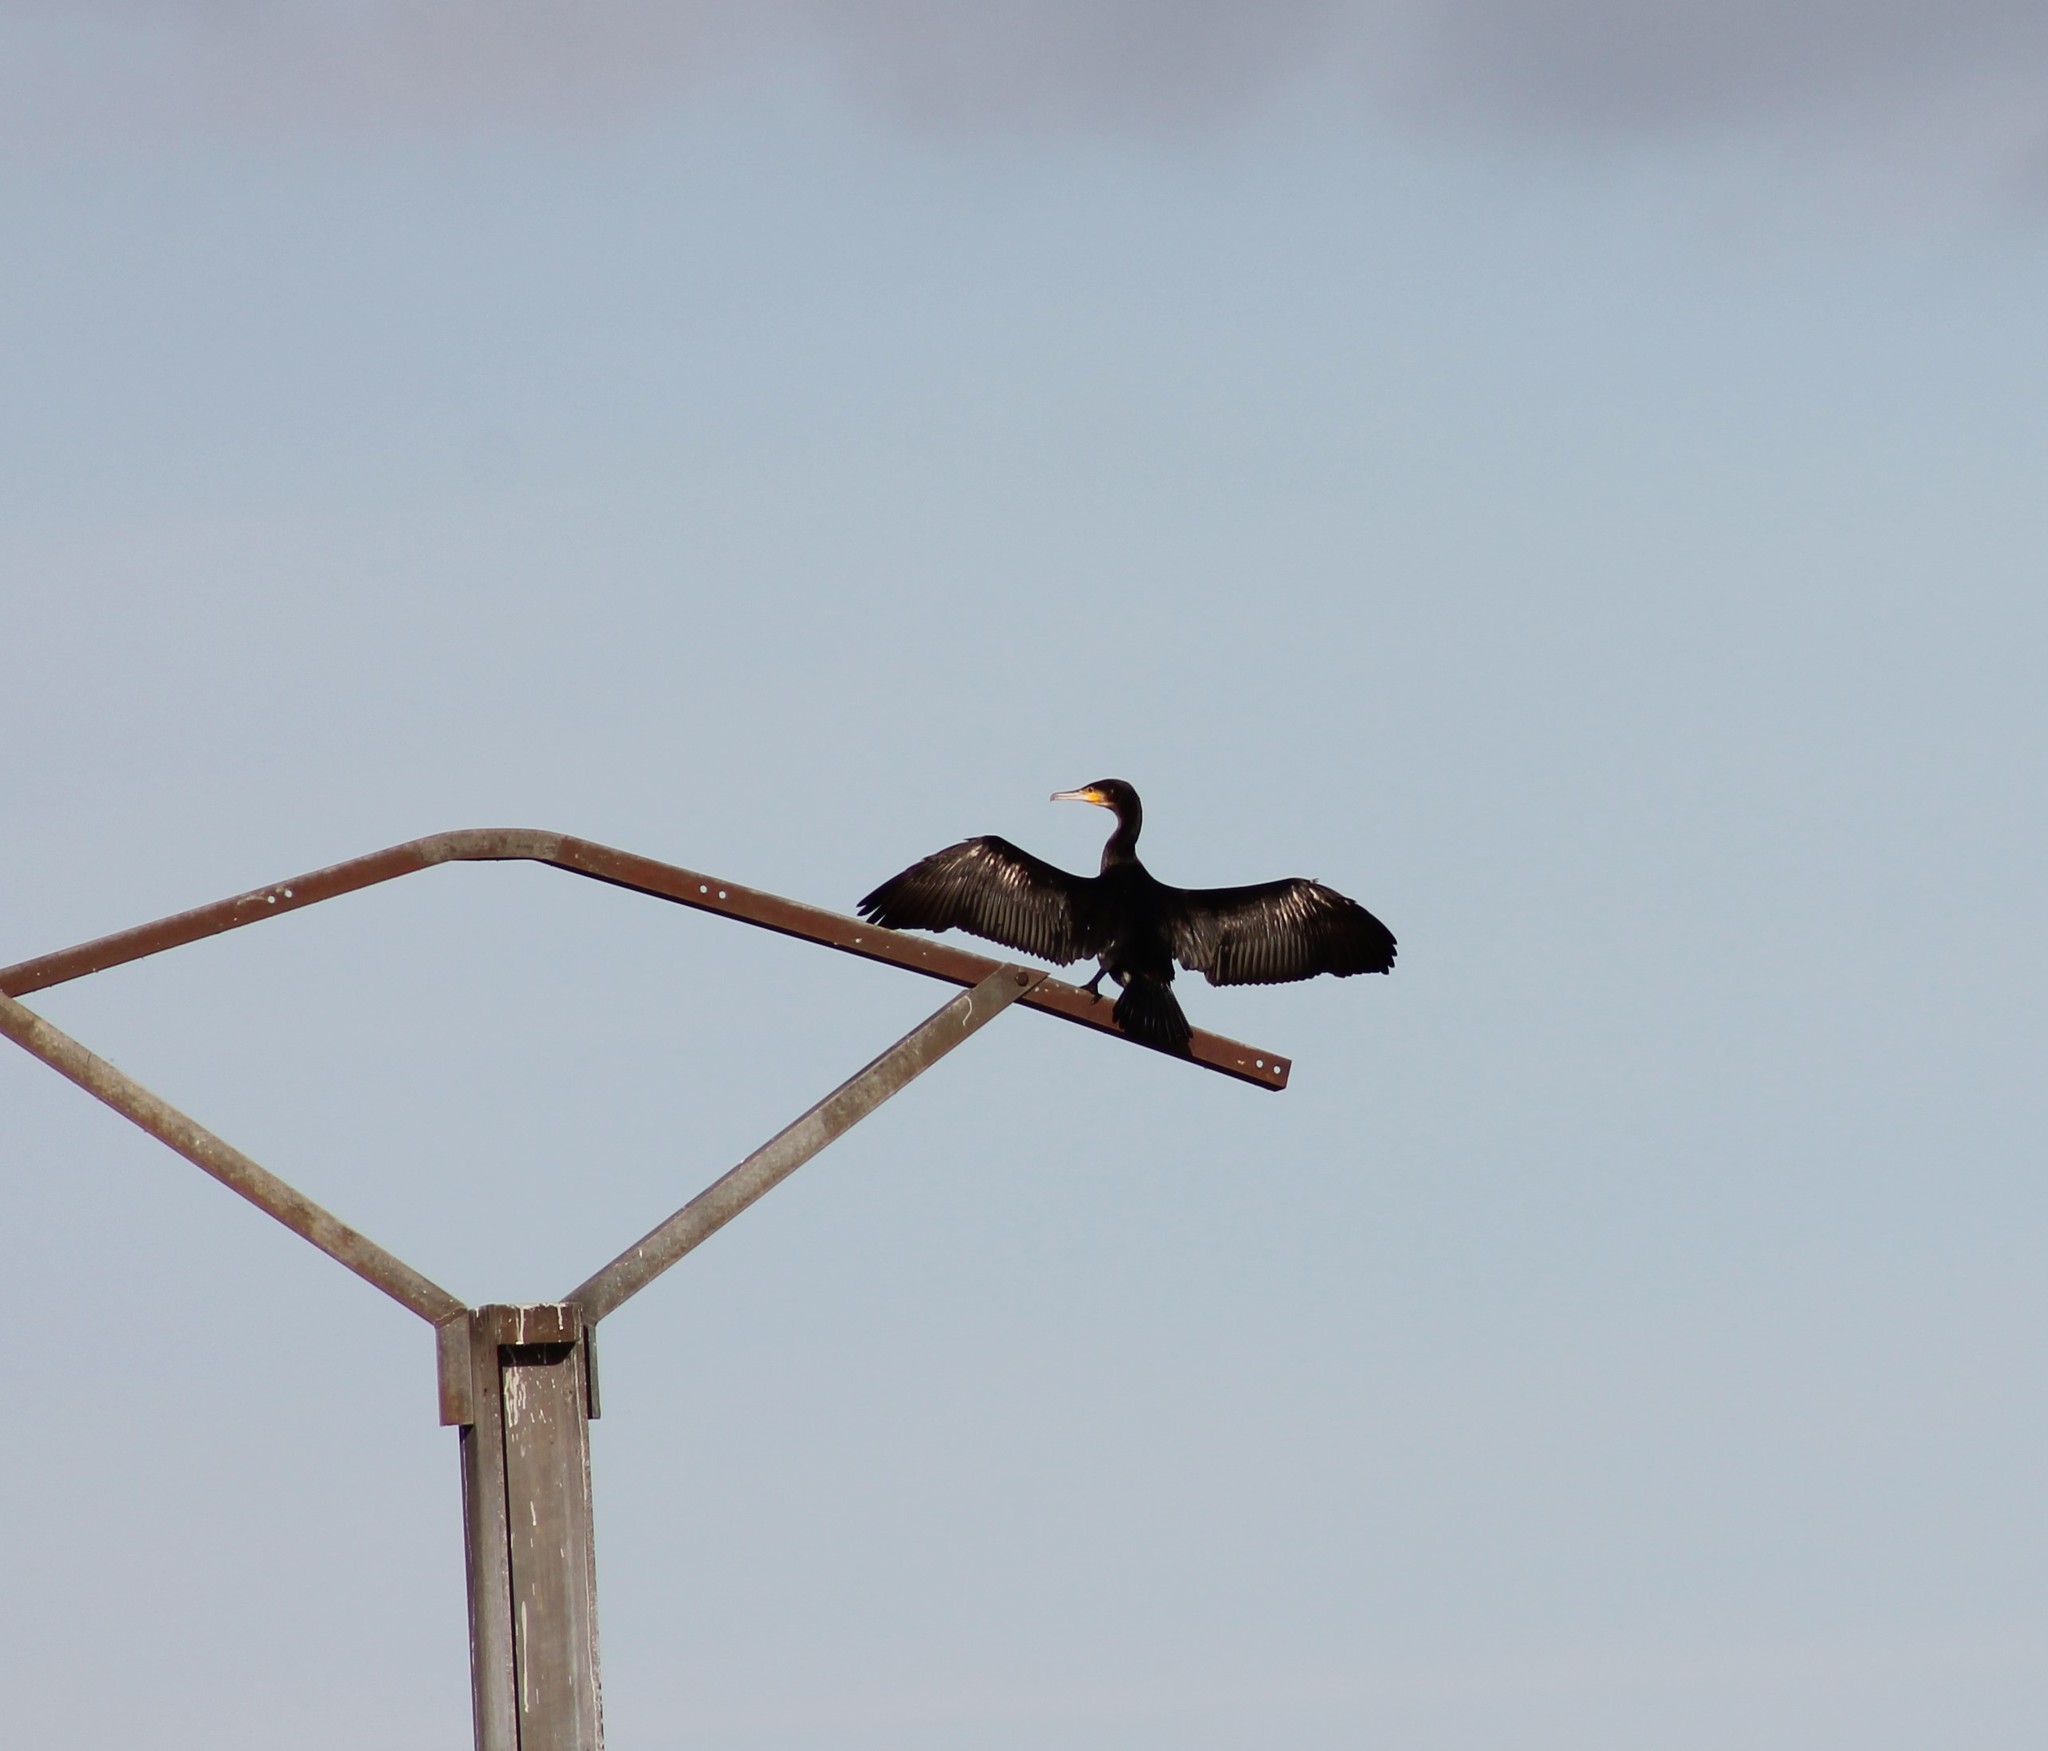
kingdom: Animalia
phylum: Chordata
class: Aves
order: Suliformes
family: Phalacrocoracidae
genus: Phalacrocorax
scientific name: Phalacrocorax carbo
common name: Great cormorant
